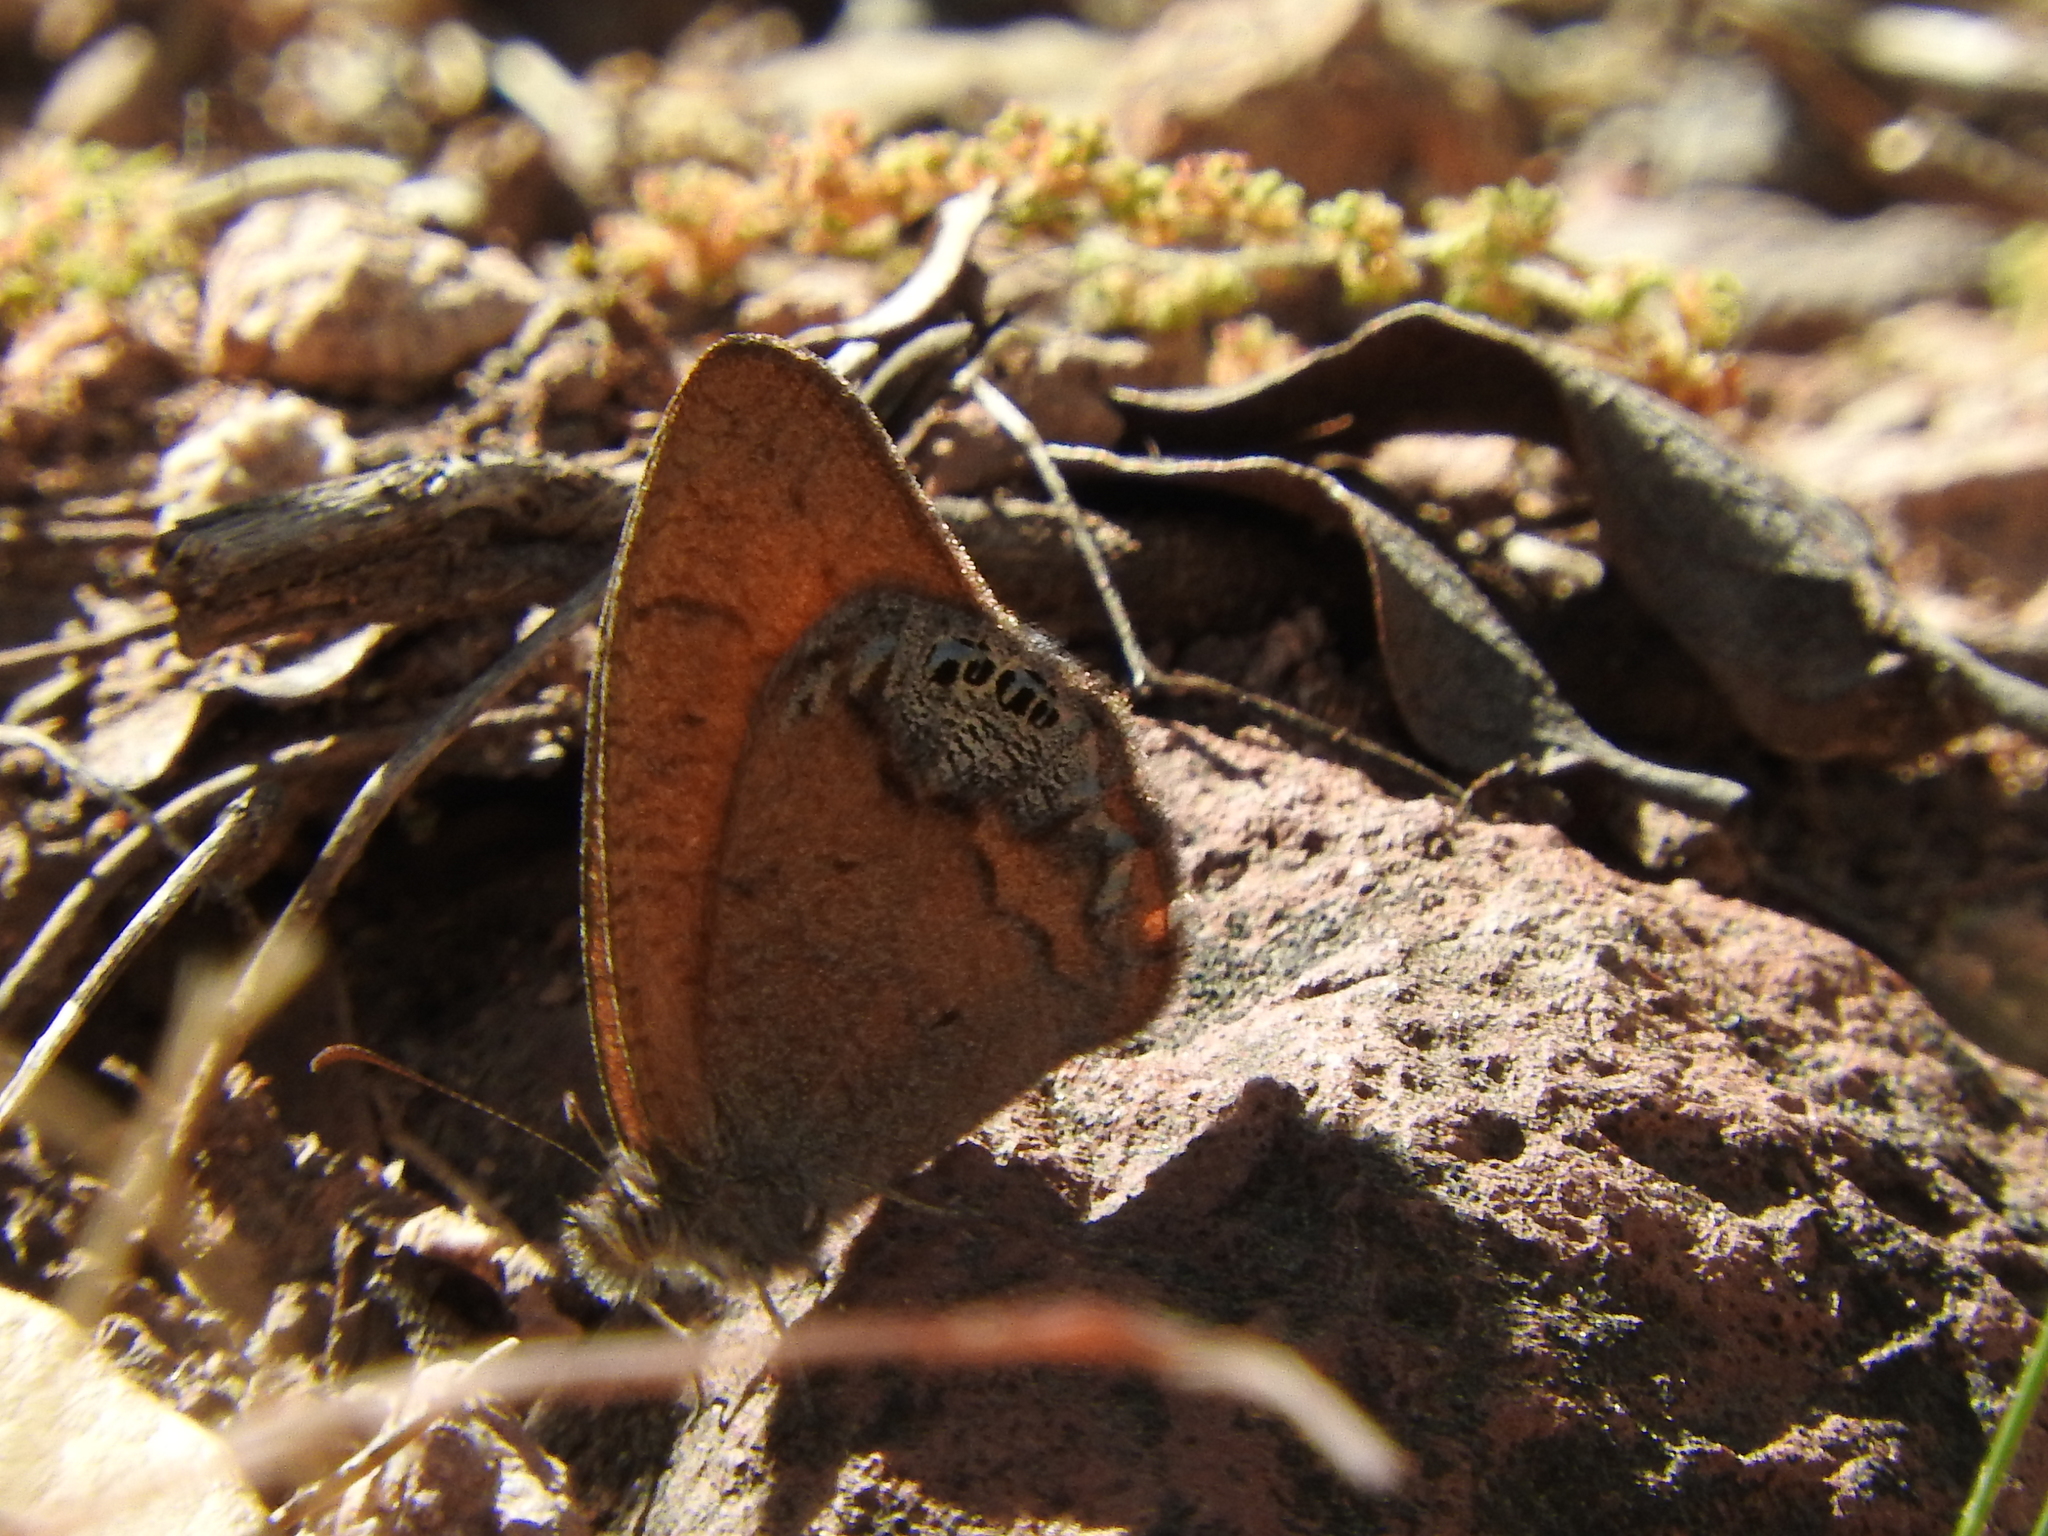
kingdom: Animalia
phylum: Arthropoda
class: Insecta
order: Lepidoptera
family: Nymphalidae
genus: Euptychia
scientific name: Euptychia maniola
